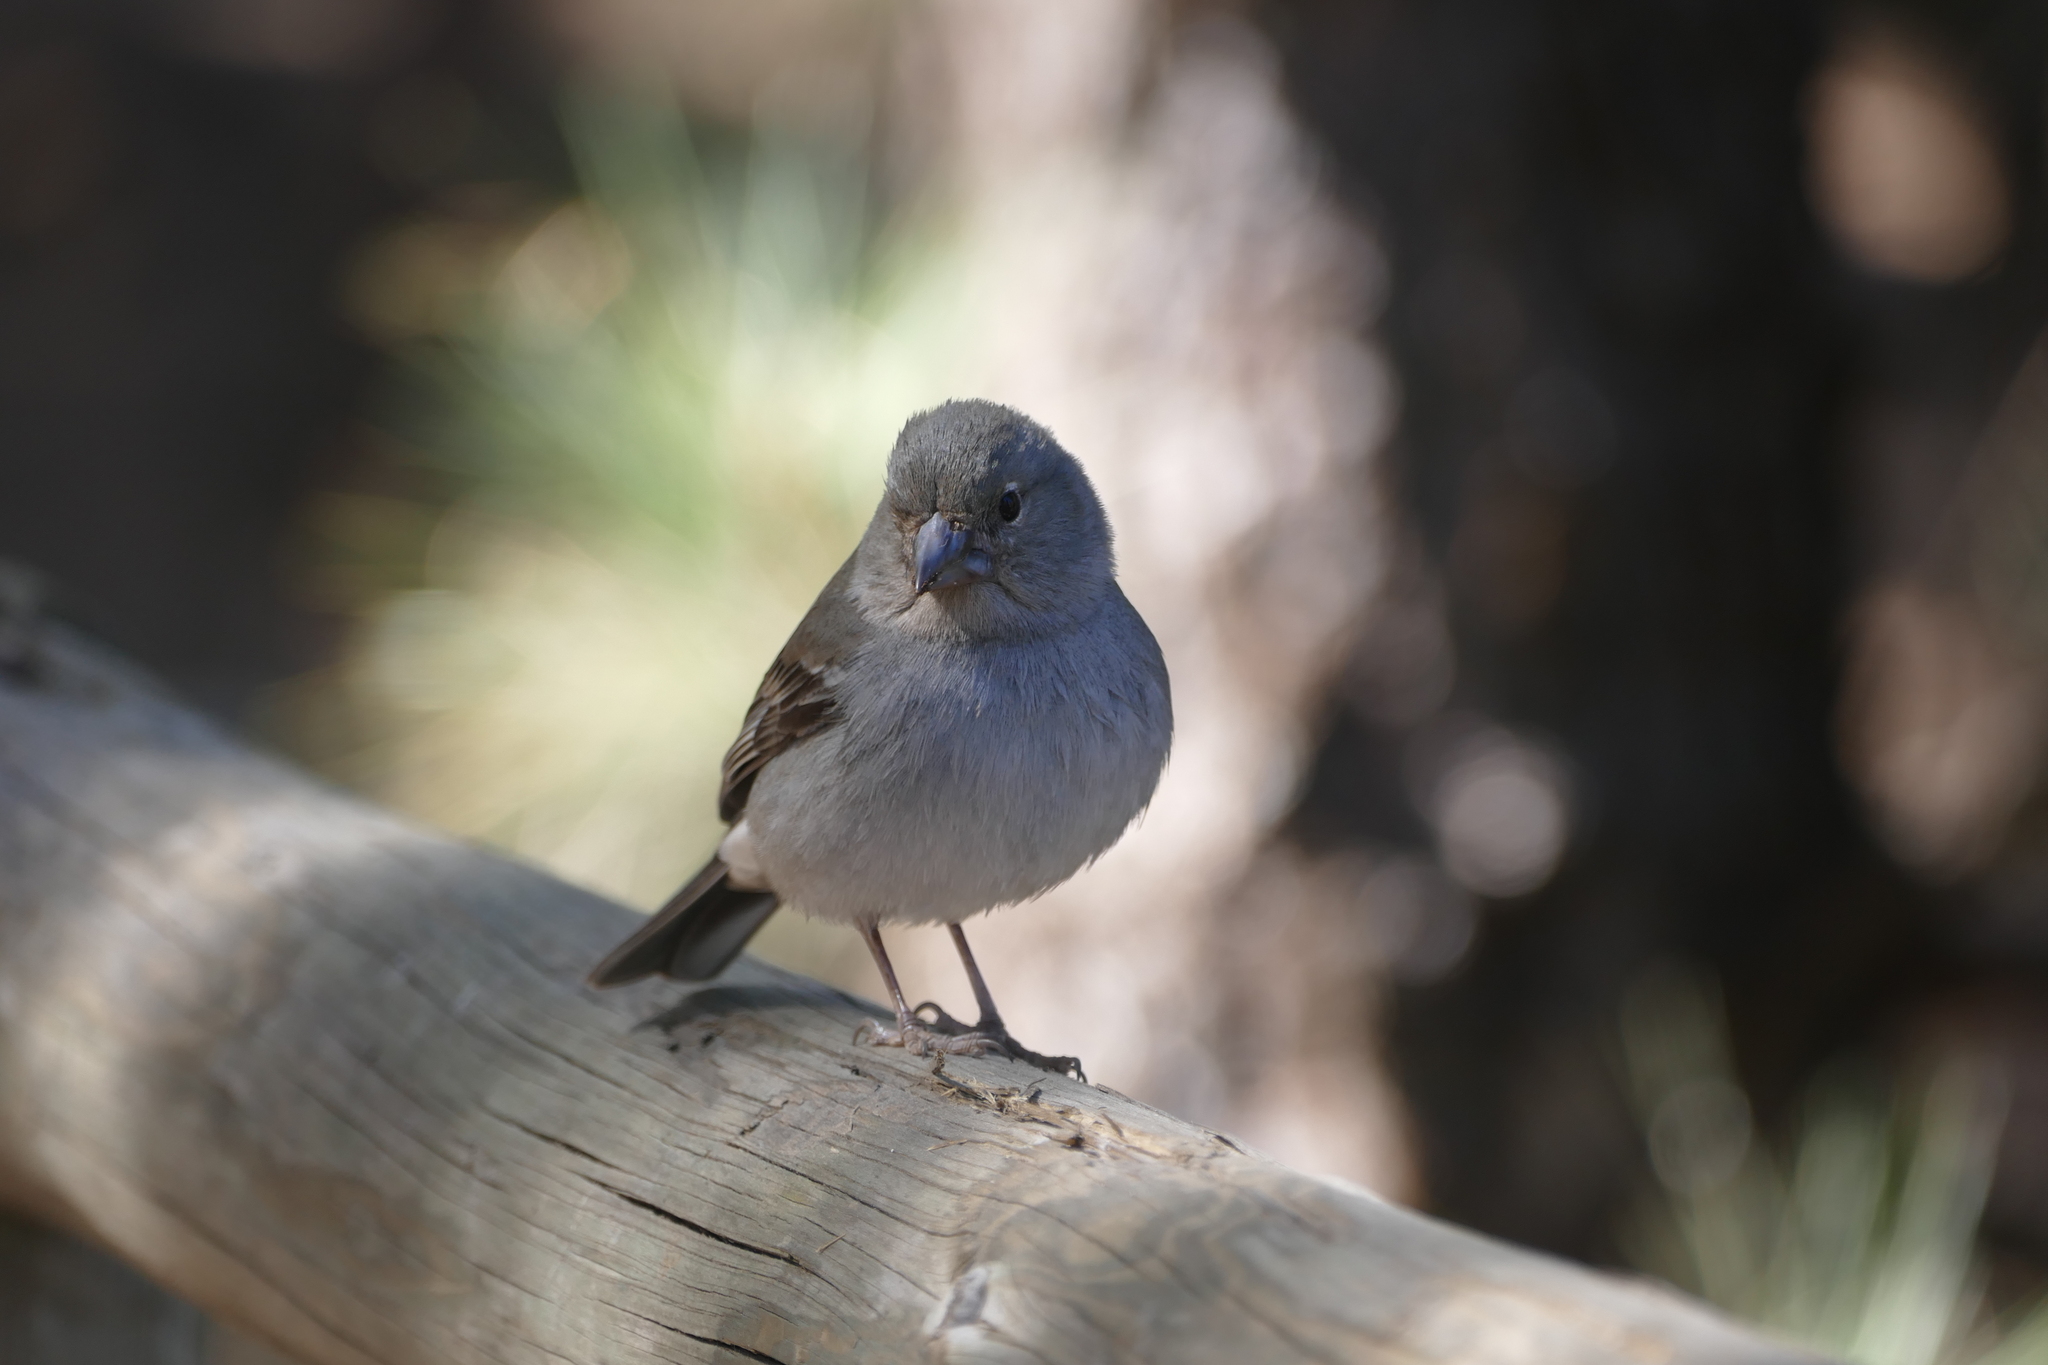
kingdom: Animalia
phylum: Chordata
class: Aves
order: Passeriformes
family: Fringillidae
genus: Fringilla
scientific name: Fringilla teydea
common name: Blue chaffinch
